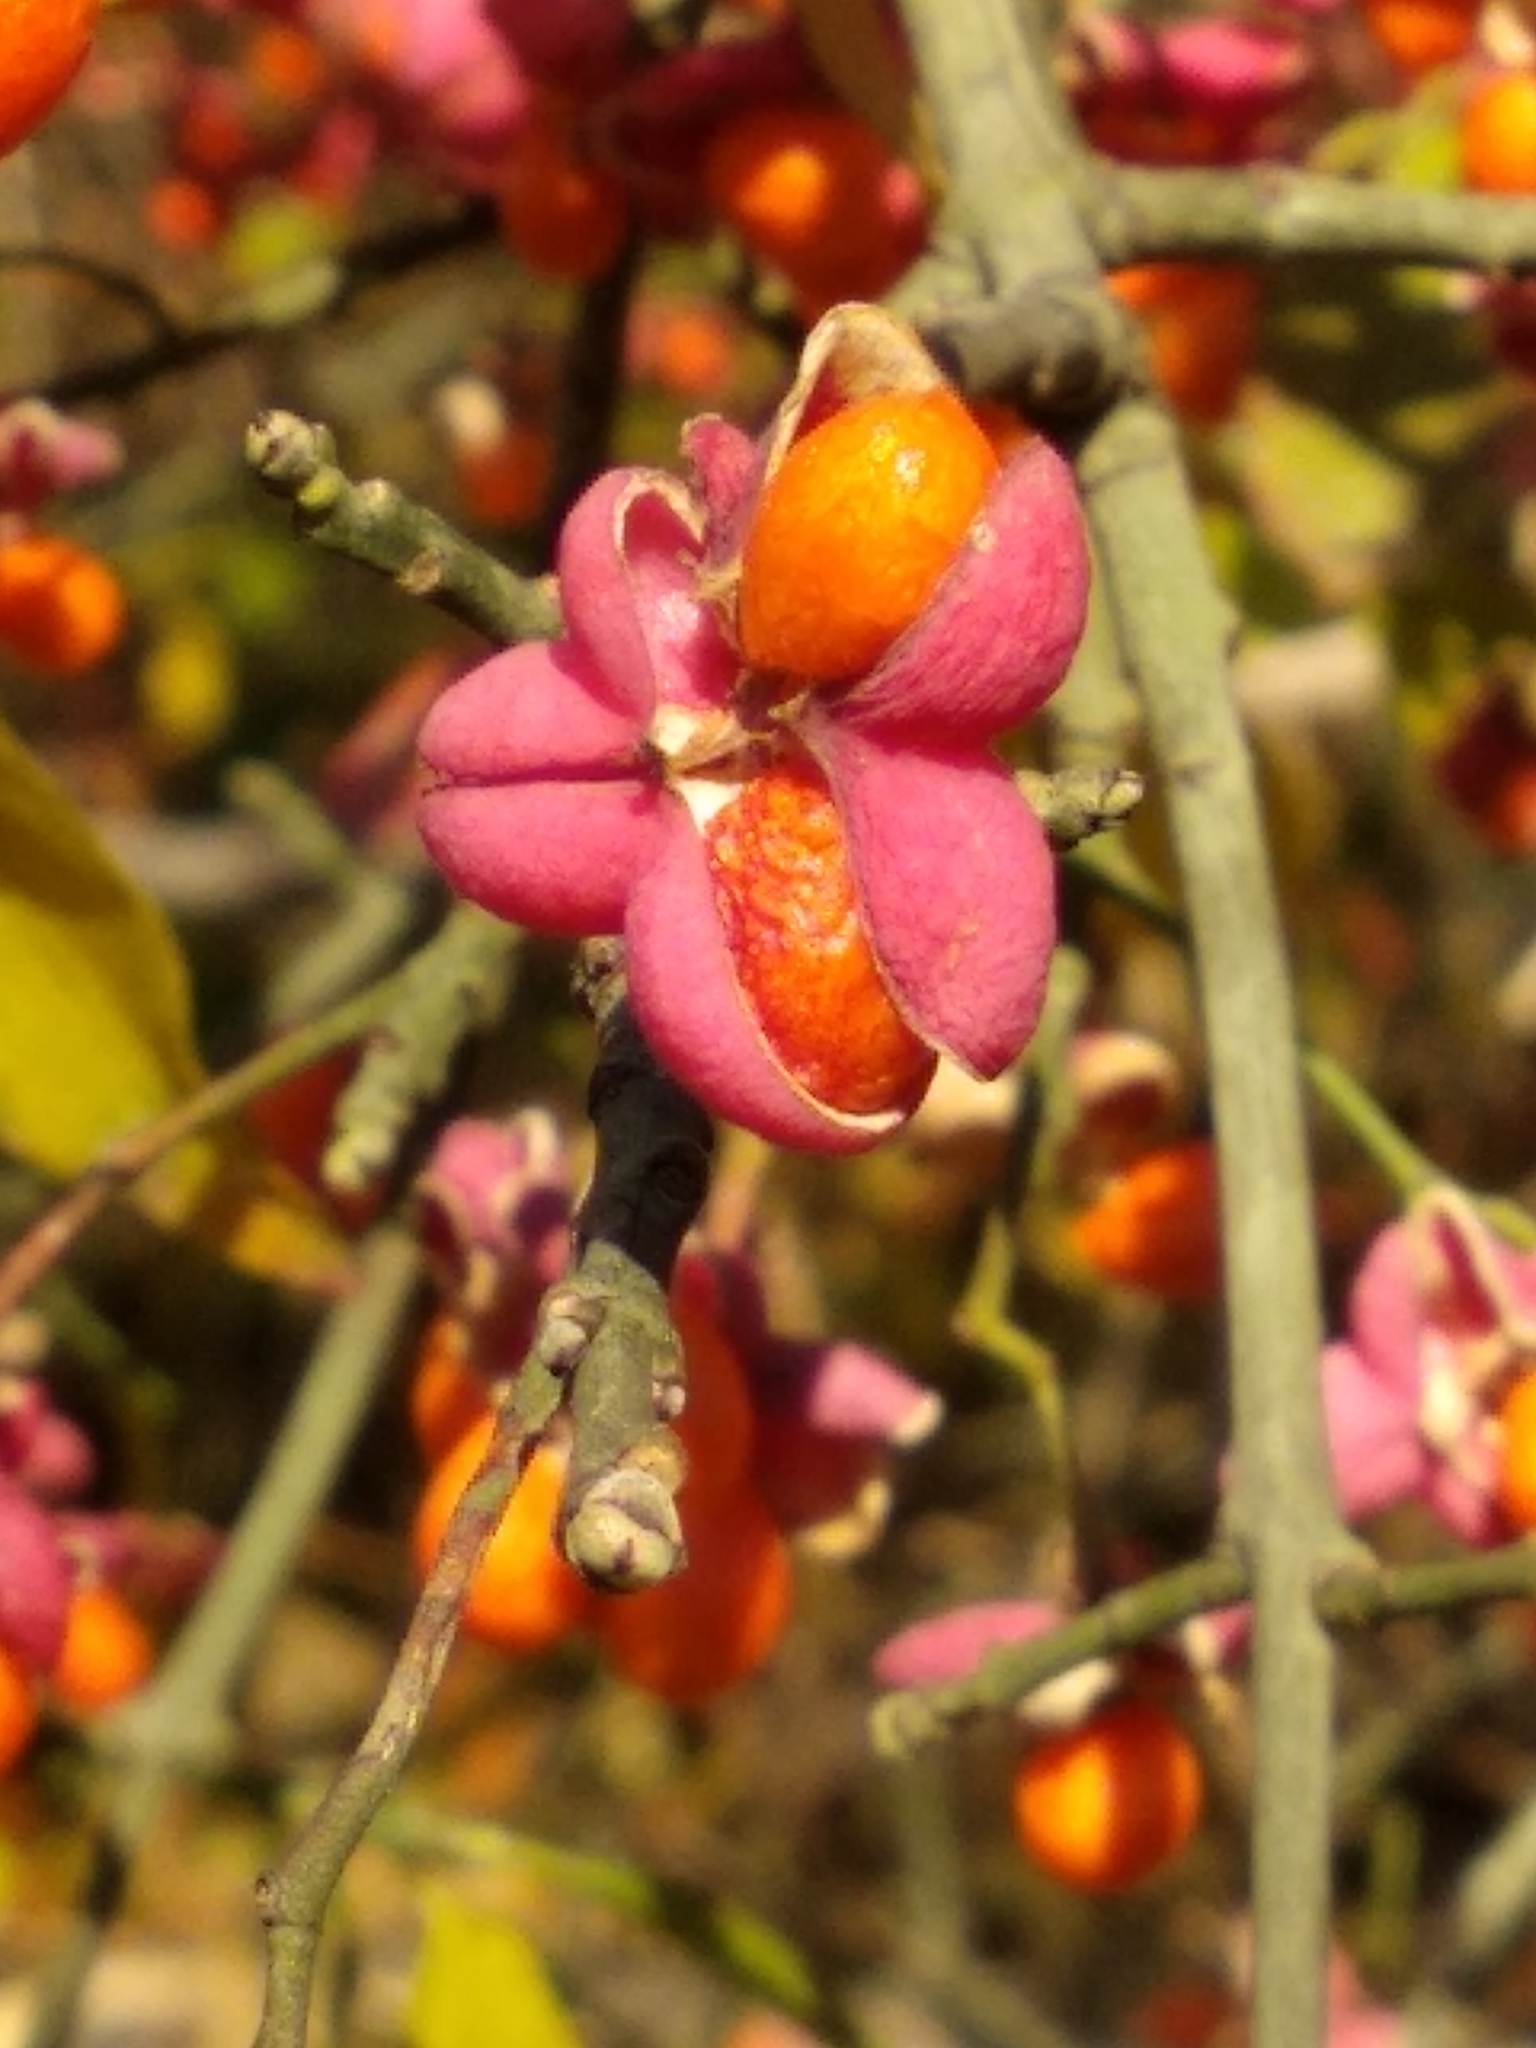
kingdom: Plantae
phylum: Tracheophyta
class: Magnoliopsida
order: Celastrales
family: Celastraceae
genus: Euonymus
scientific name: Euonymus europaeus
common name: Spindle
